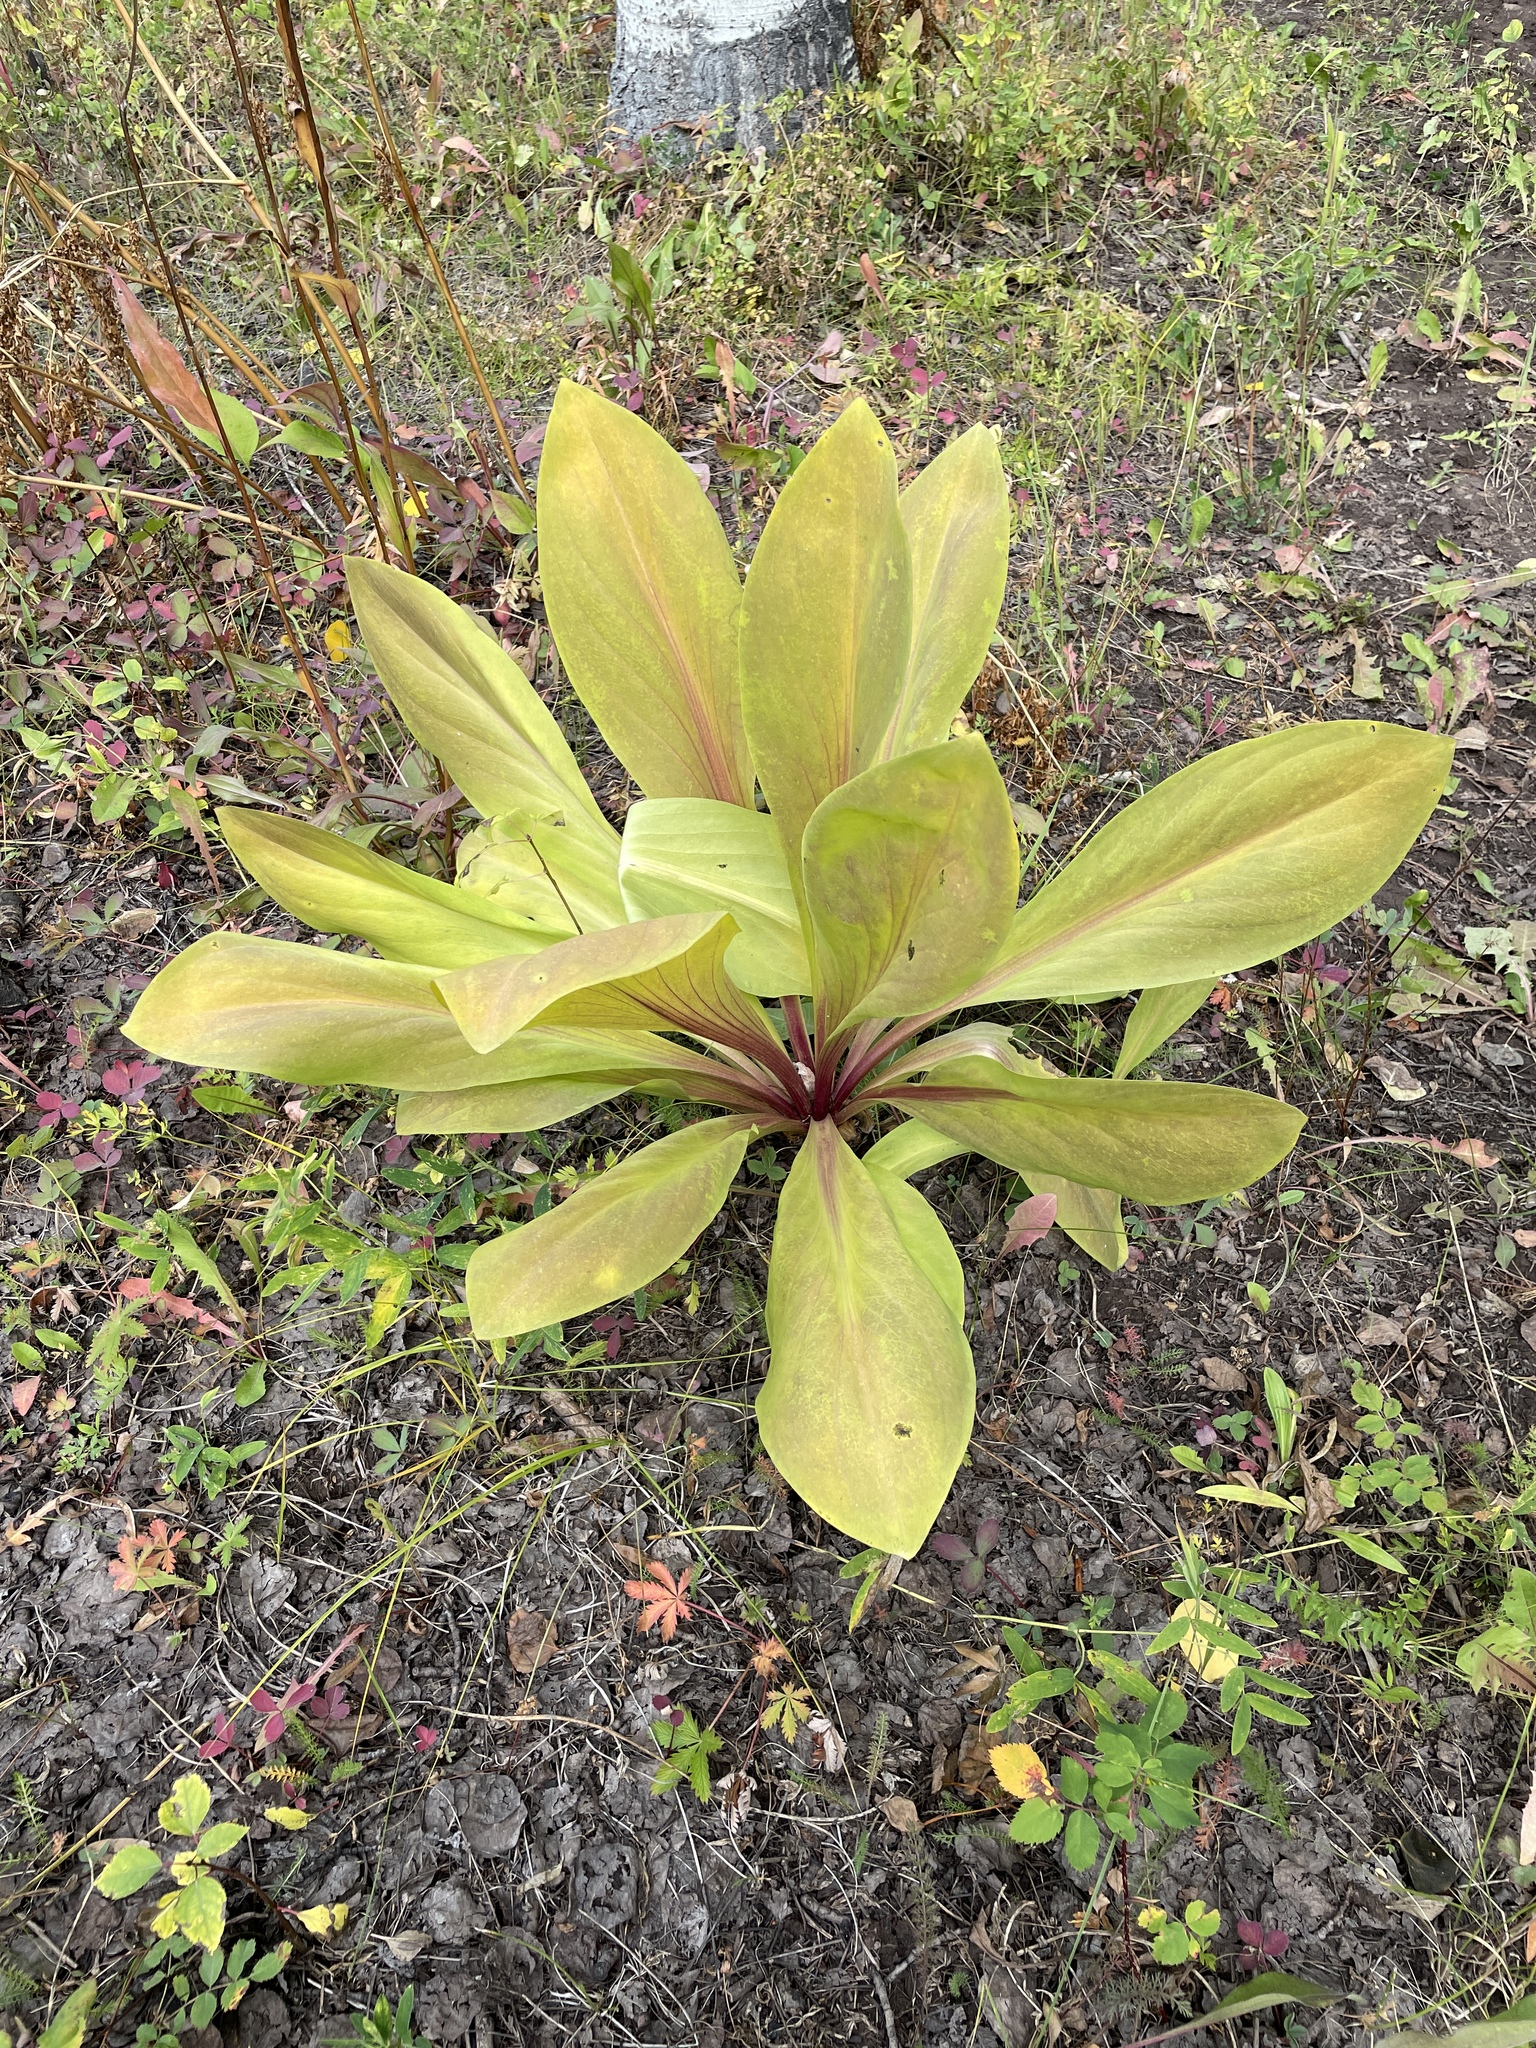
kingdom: Plantae
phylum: Tracheophyta
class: Magnoliopsida
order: Gentianales
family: Gentianaceae
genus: Frasera
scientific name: Frasera speciosa
